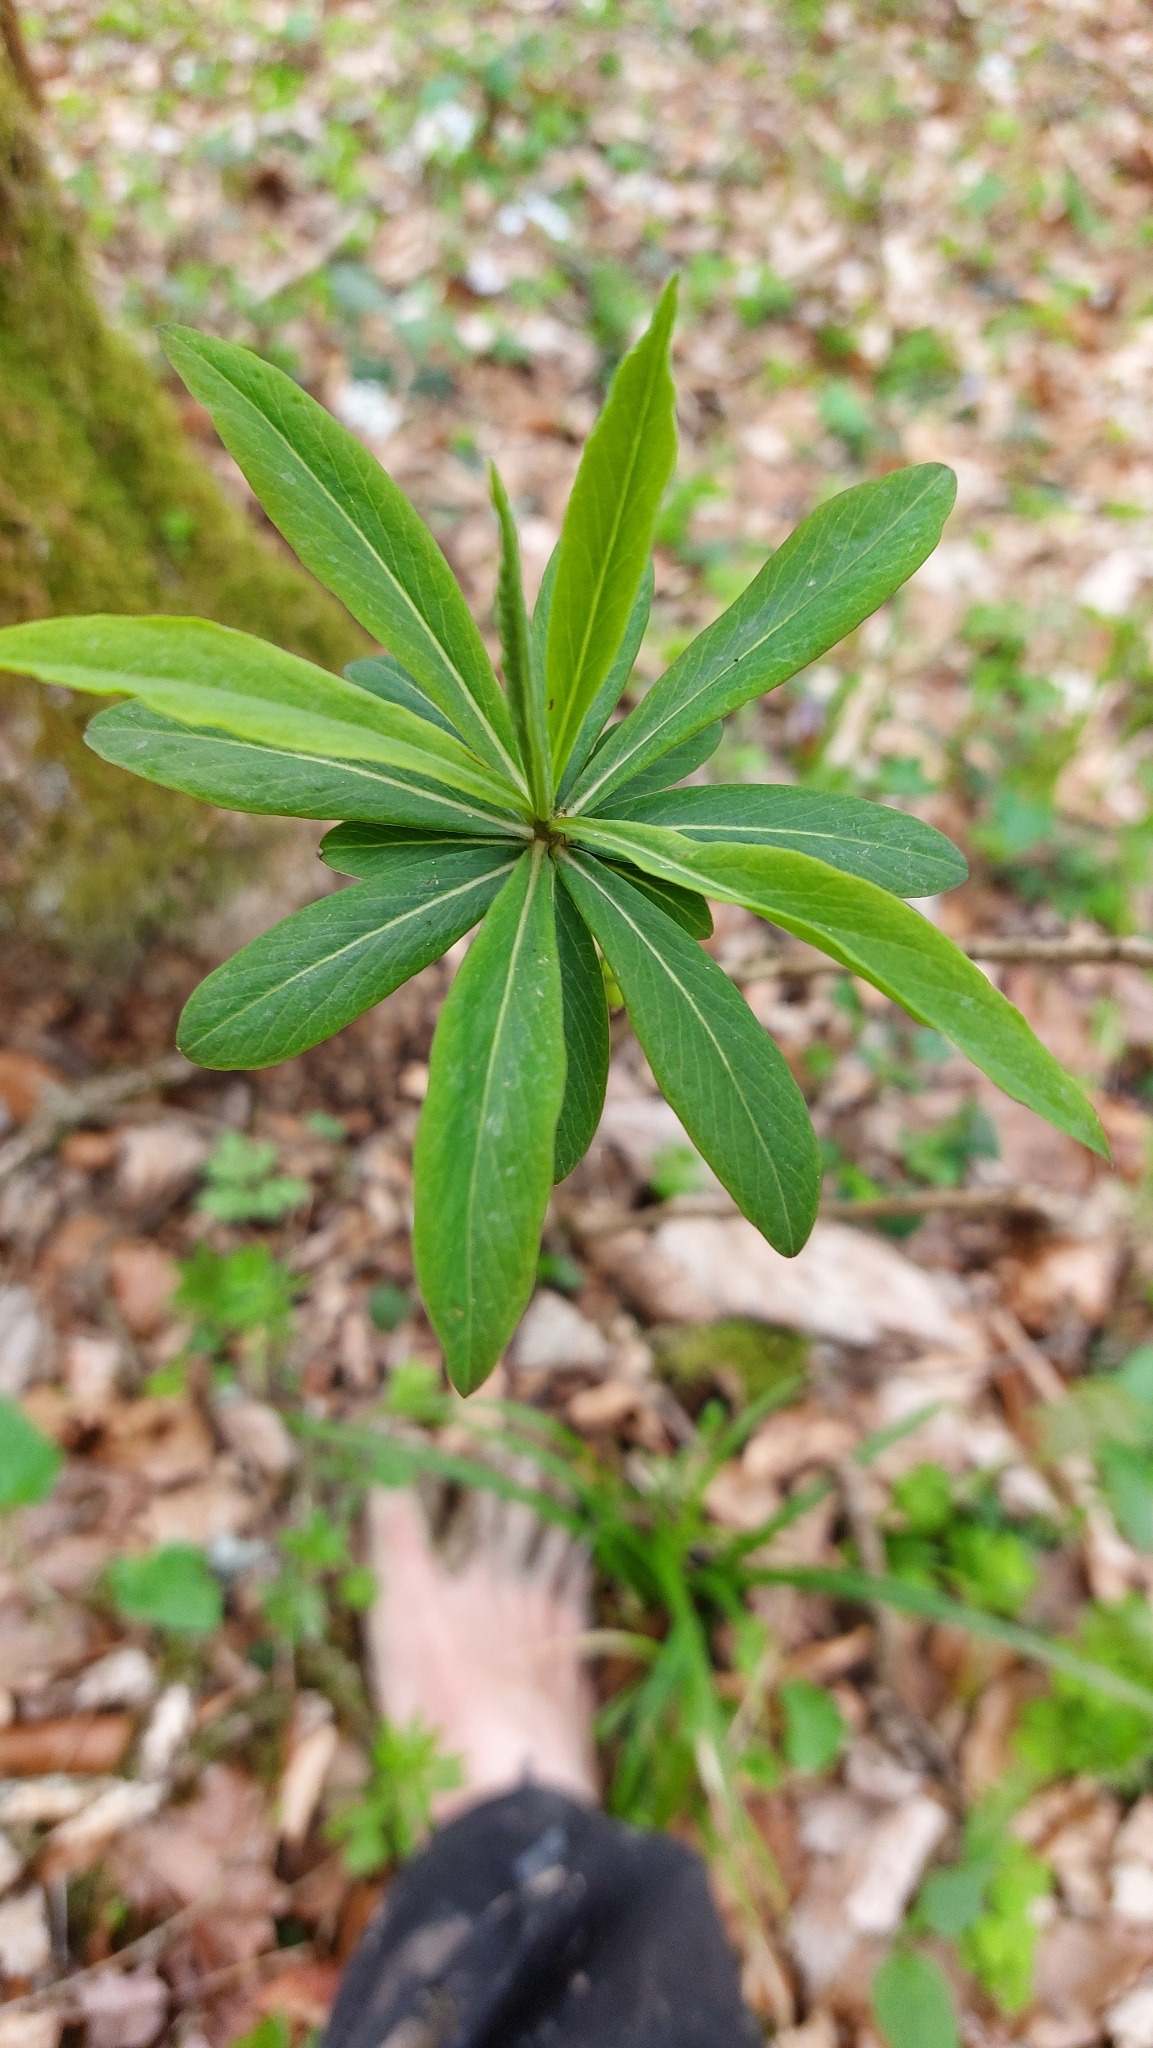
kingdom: Plantae
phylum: Tracheophyta
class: Magnoliopsida
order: Malvales
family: Thymelaeaceae
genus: Daphne
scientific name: Daphne mezereum
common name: Mezereon
